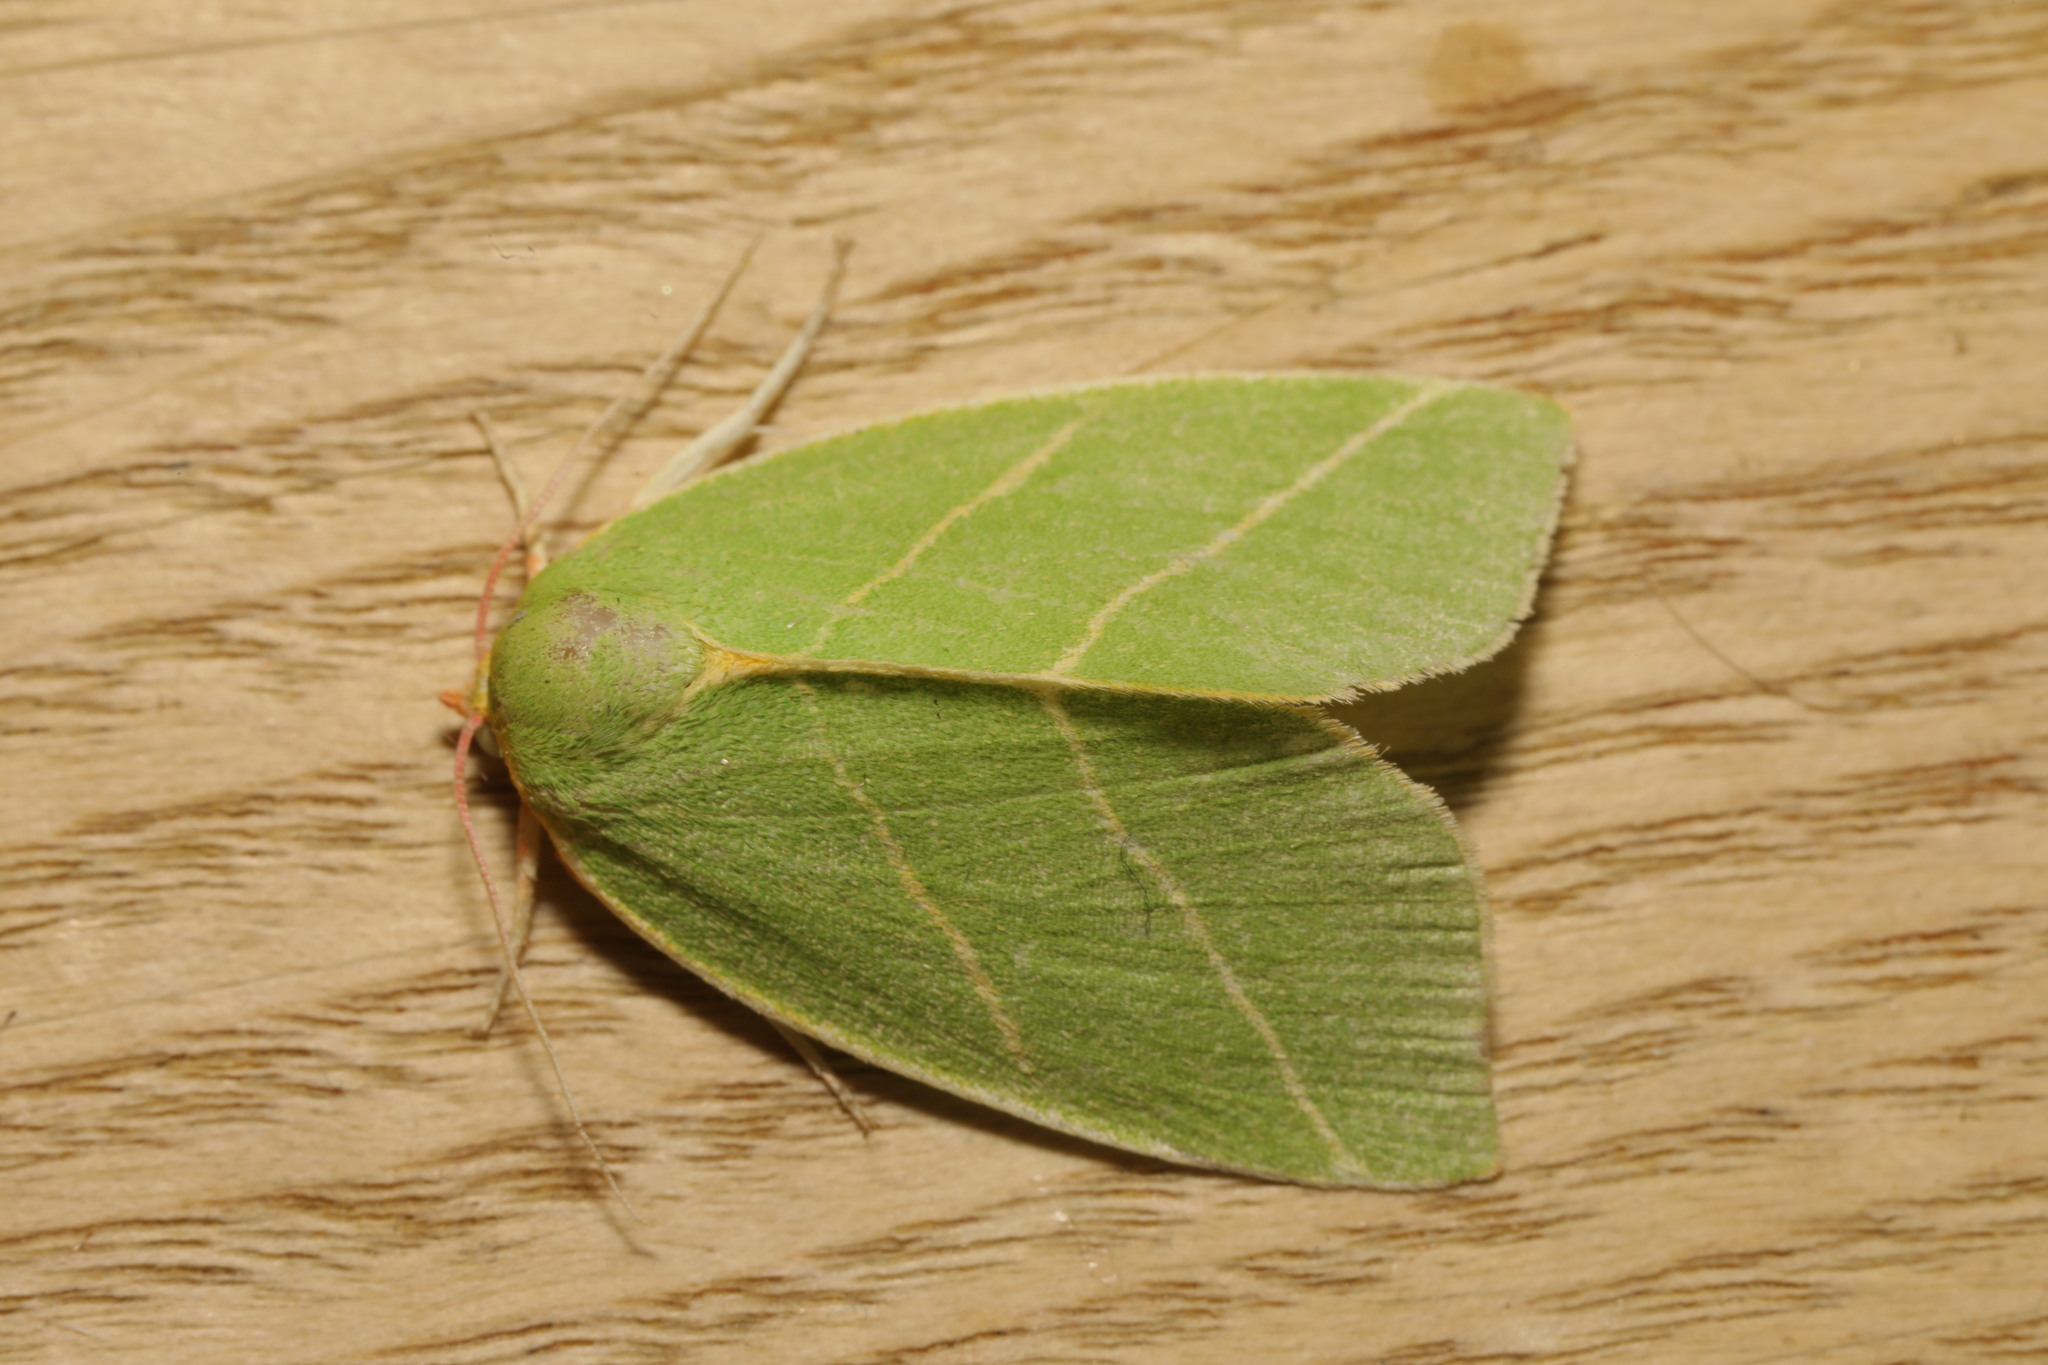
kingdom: Animalia
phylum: Arthropoda
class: Insecta
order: Lepidoptera
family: Nolidae
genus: Bena
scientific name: Bena bicolorana
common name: Scarce silver-lines
